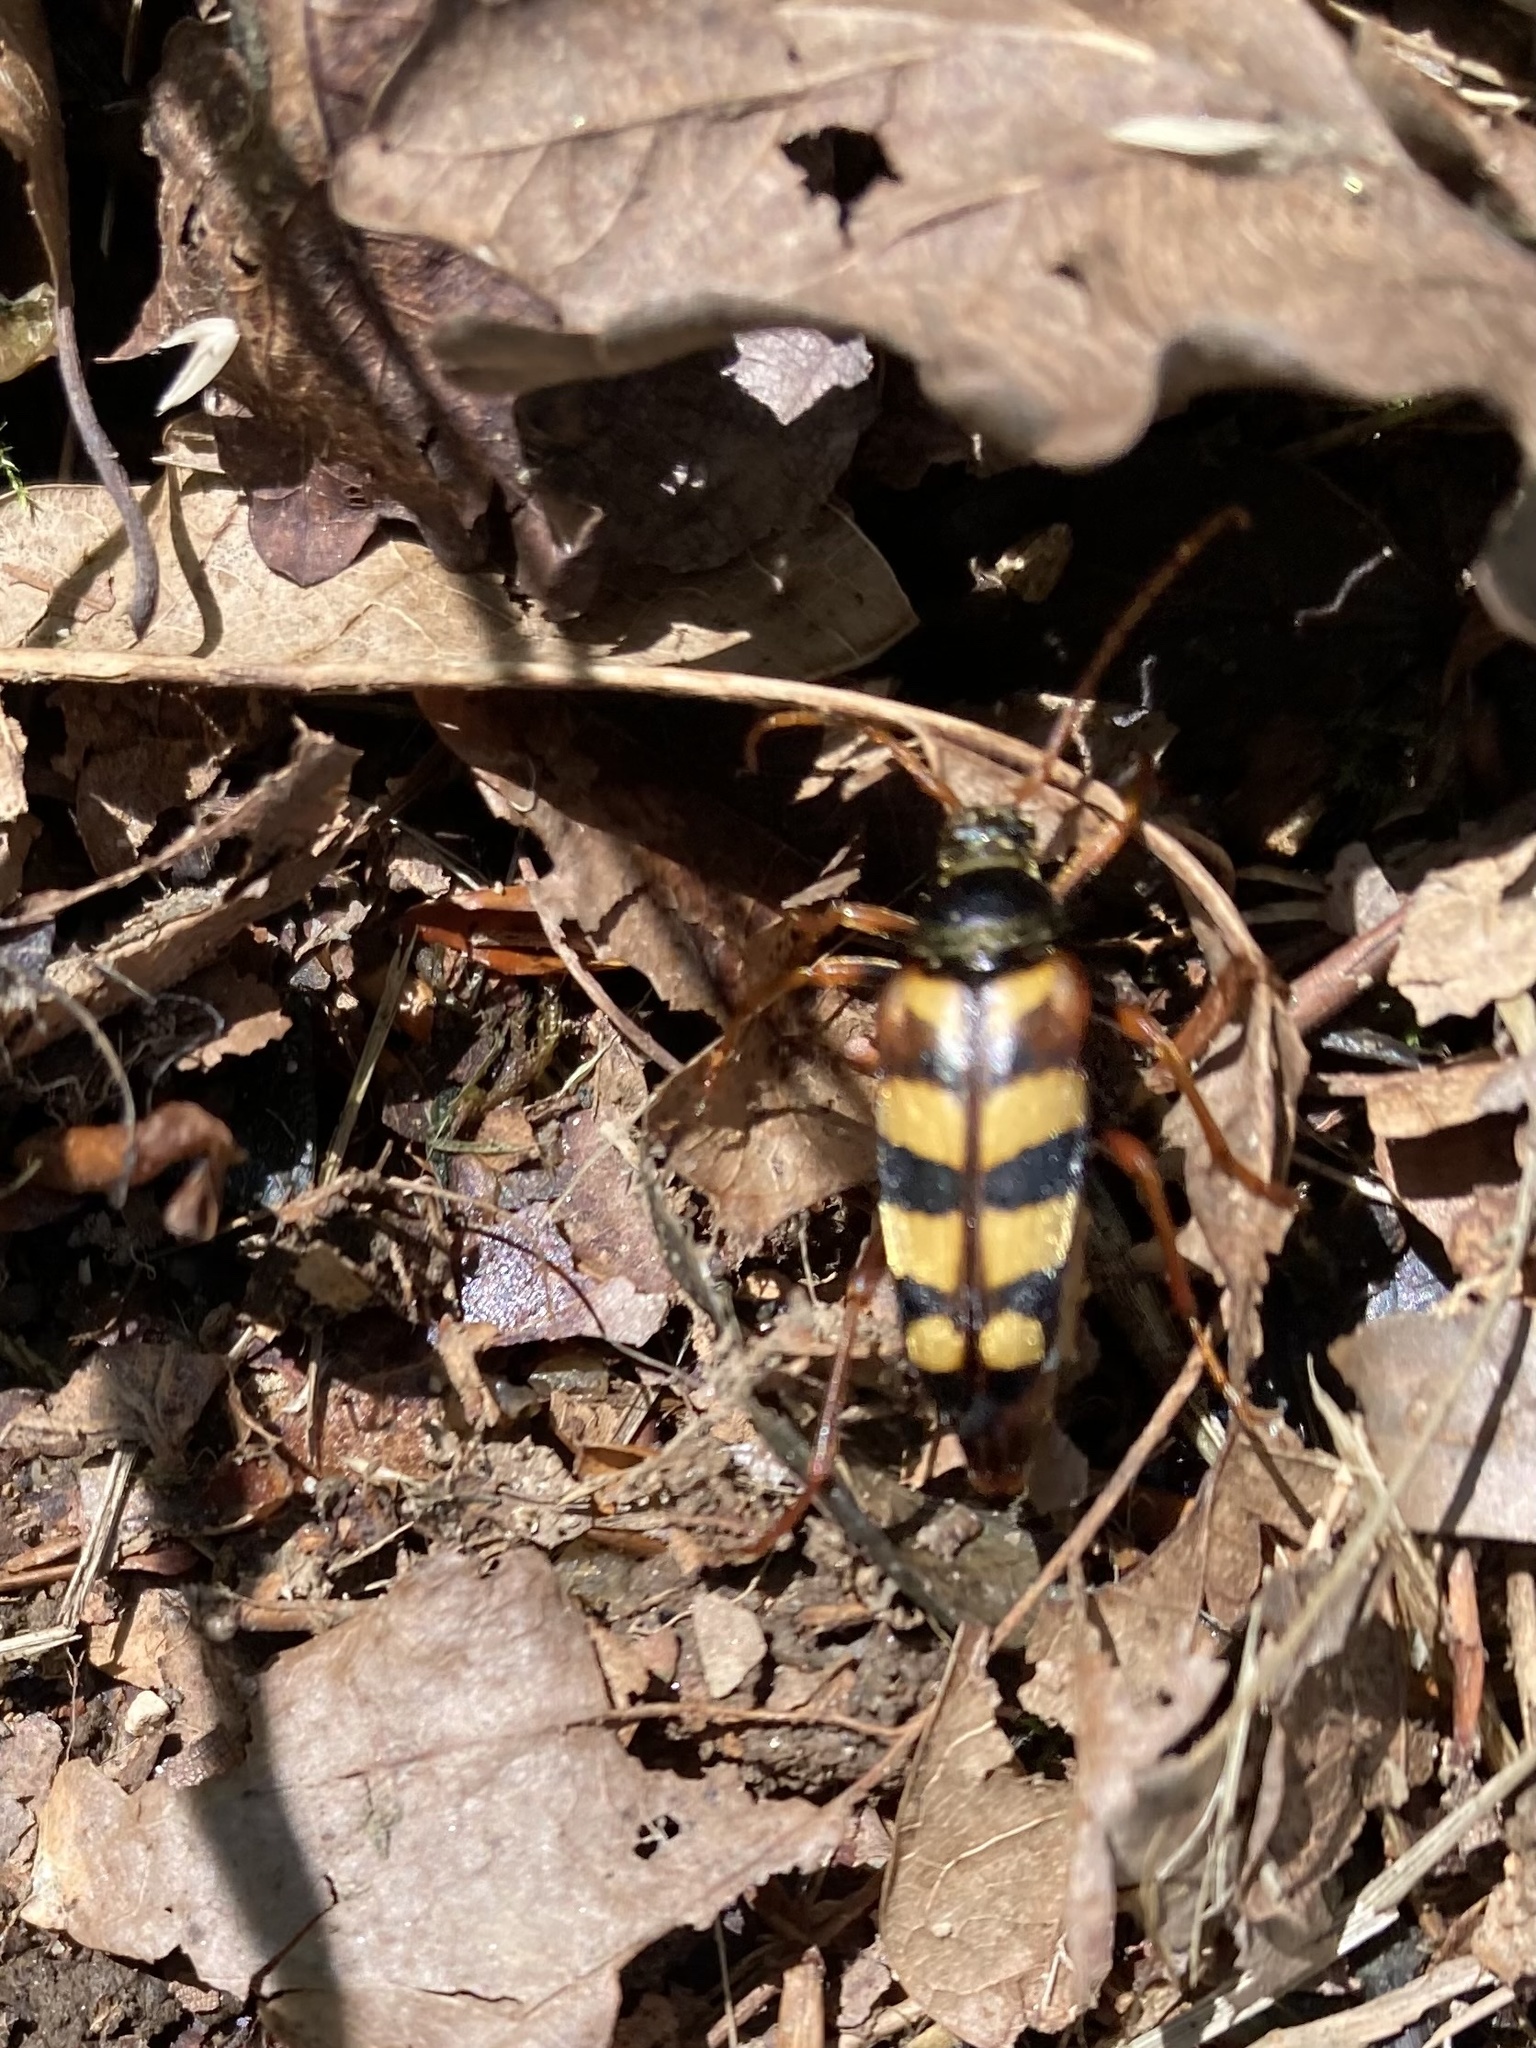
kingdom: Animalia
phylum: Arthropoda
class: Insecta
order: Coleoptera
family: Cerambycidae
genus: Leptura
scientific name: Leptura aurulenta
